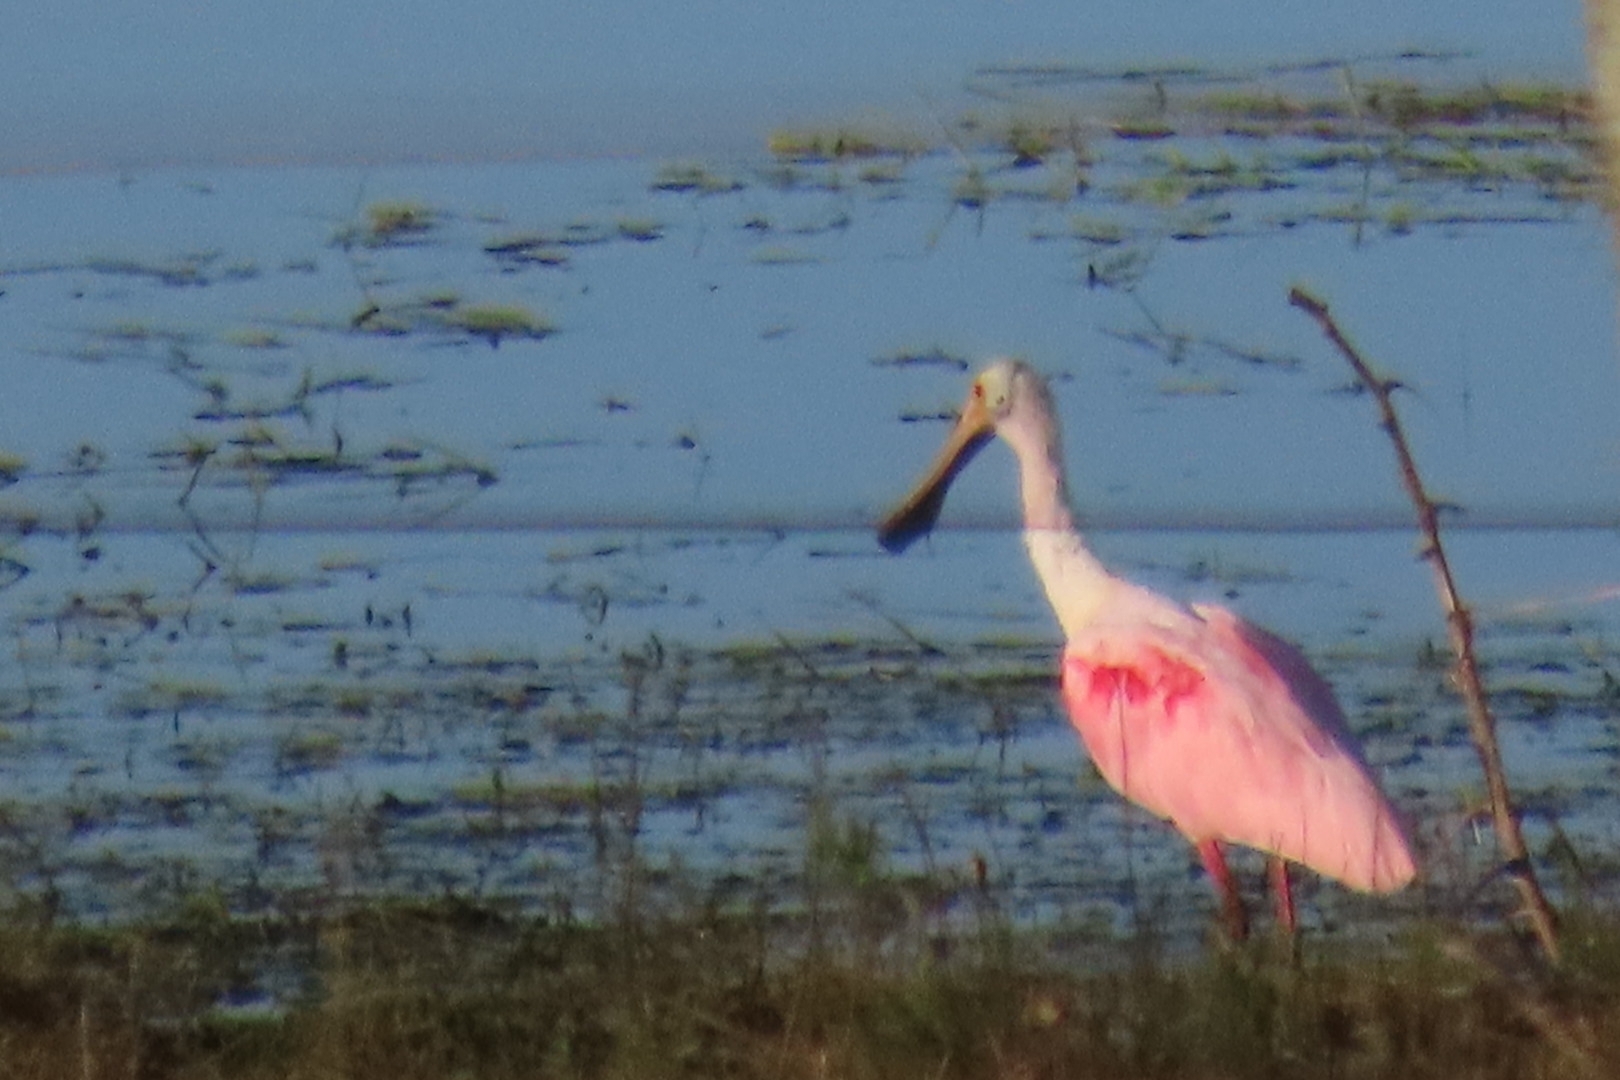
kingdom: Animalia
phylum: Chordata
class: Aves
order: Pelecaniformes
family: Threskiornithidae
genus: Platalea
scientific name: Platalea ajaja
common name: Roseate spoonbill
